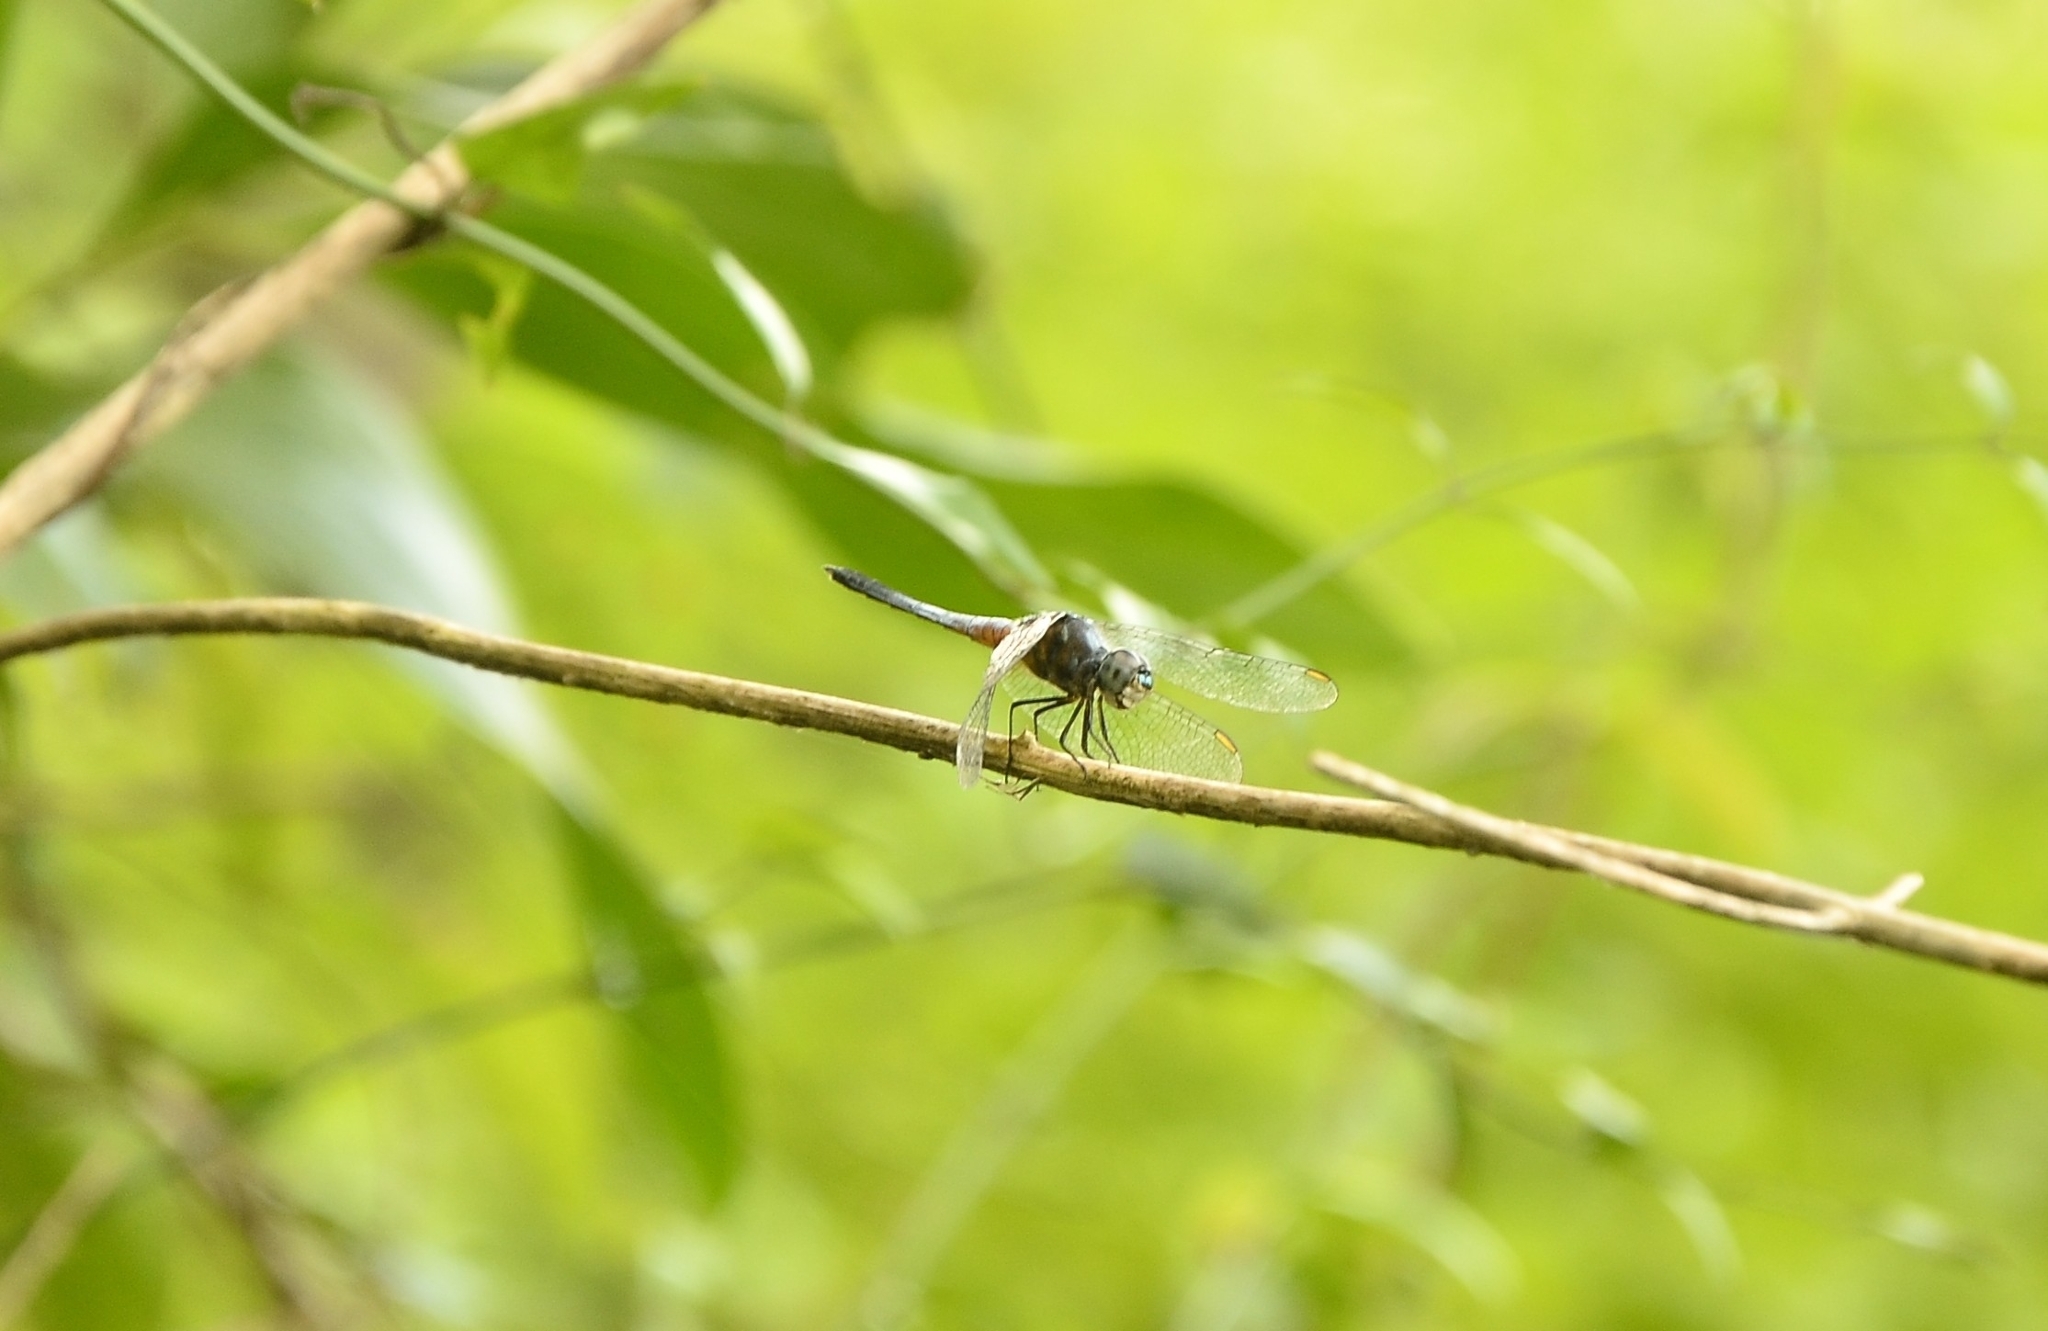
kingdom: Animalia
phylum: Arthropoda
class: Insecta
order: Odonata
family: Libellulidae
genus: Brachydiplax
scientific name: Brachydiplax chalybea
